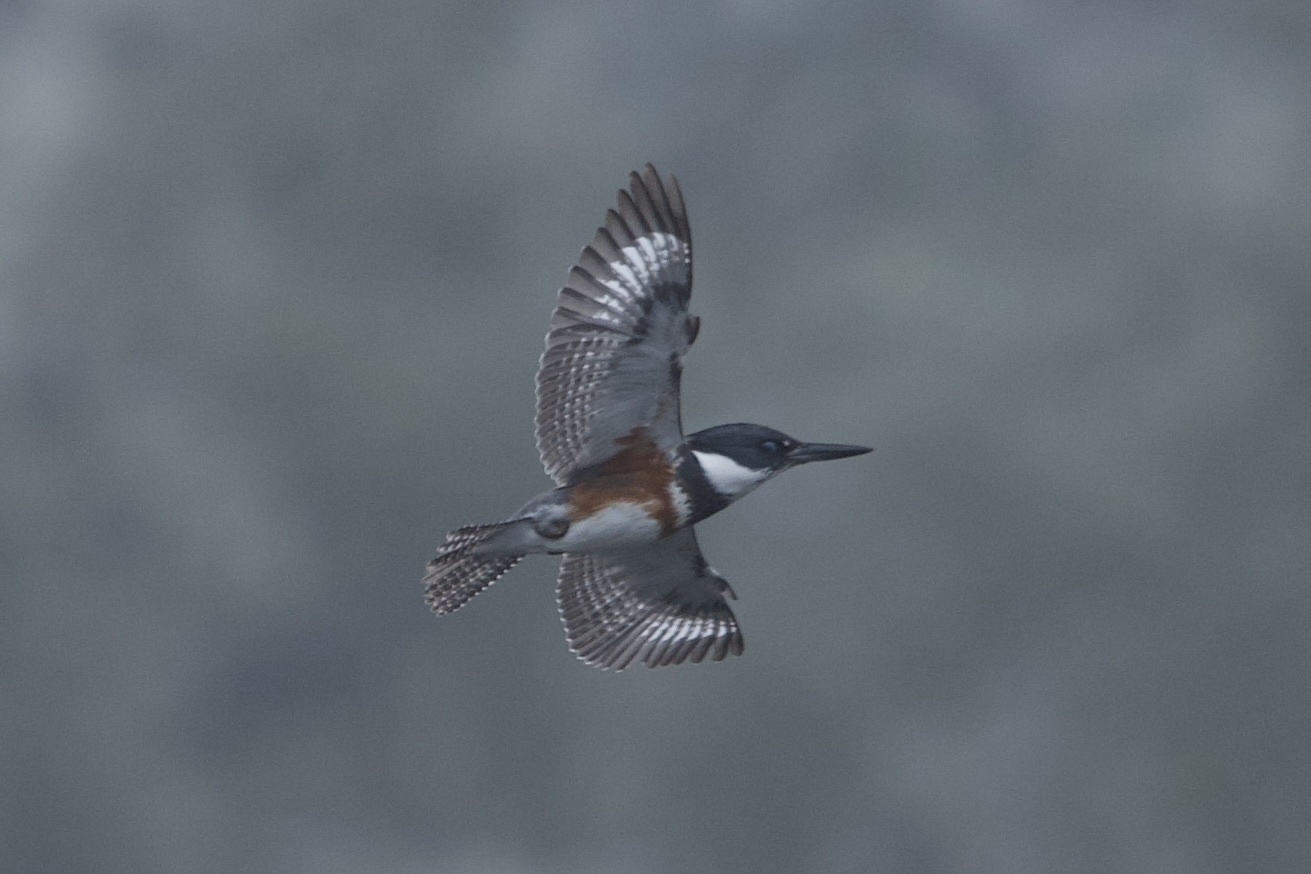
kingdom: Animalia
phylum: Chordata
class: Aves
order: Coraciiformes
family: Alcedinidae
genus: Megaceryle
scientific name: Megaceryle alcyon
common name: Belted kingfisher
